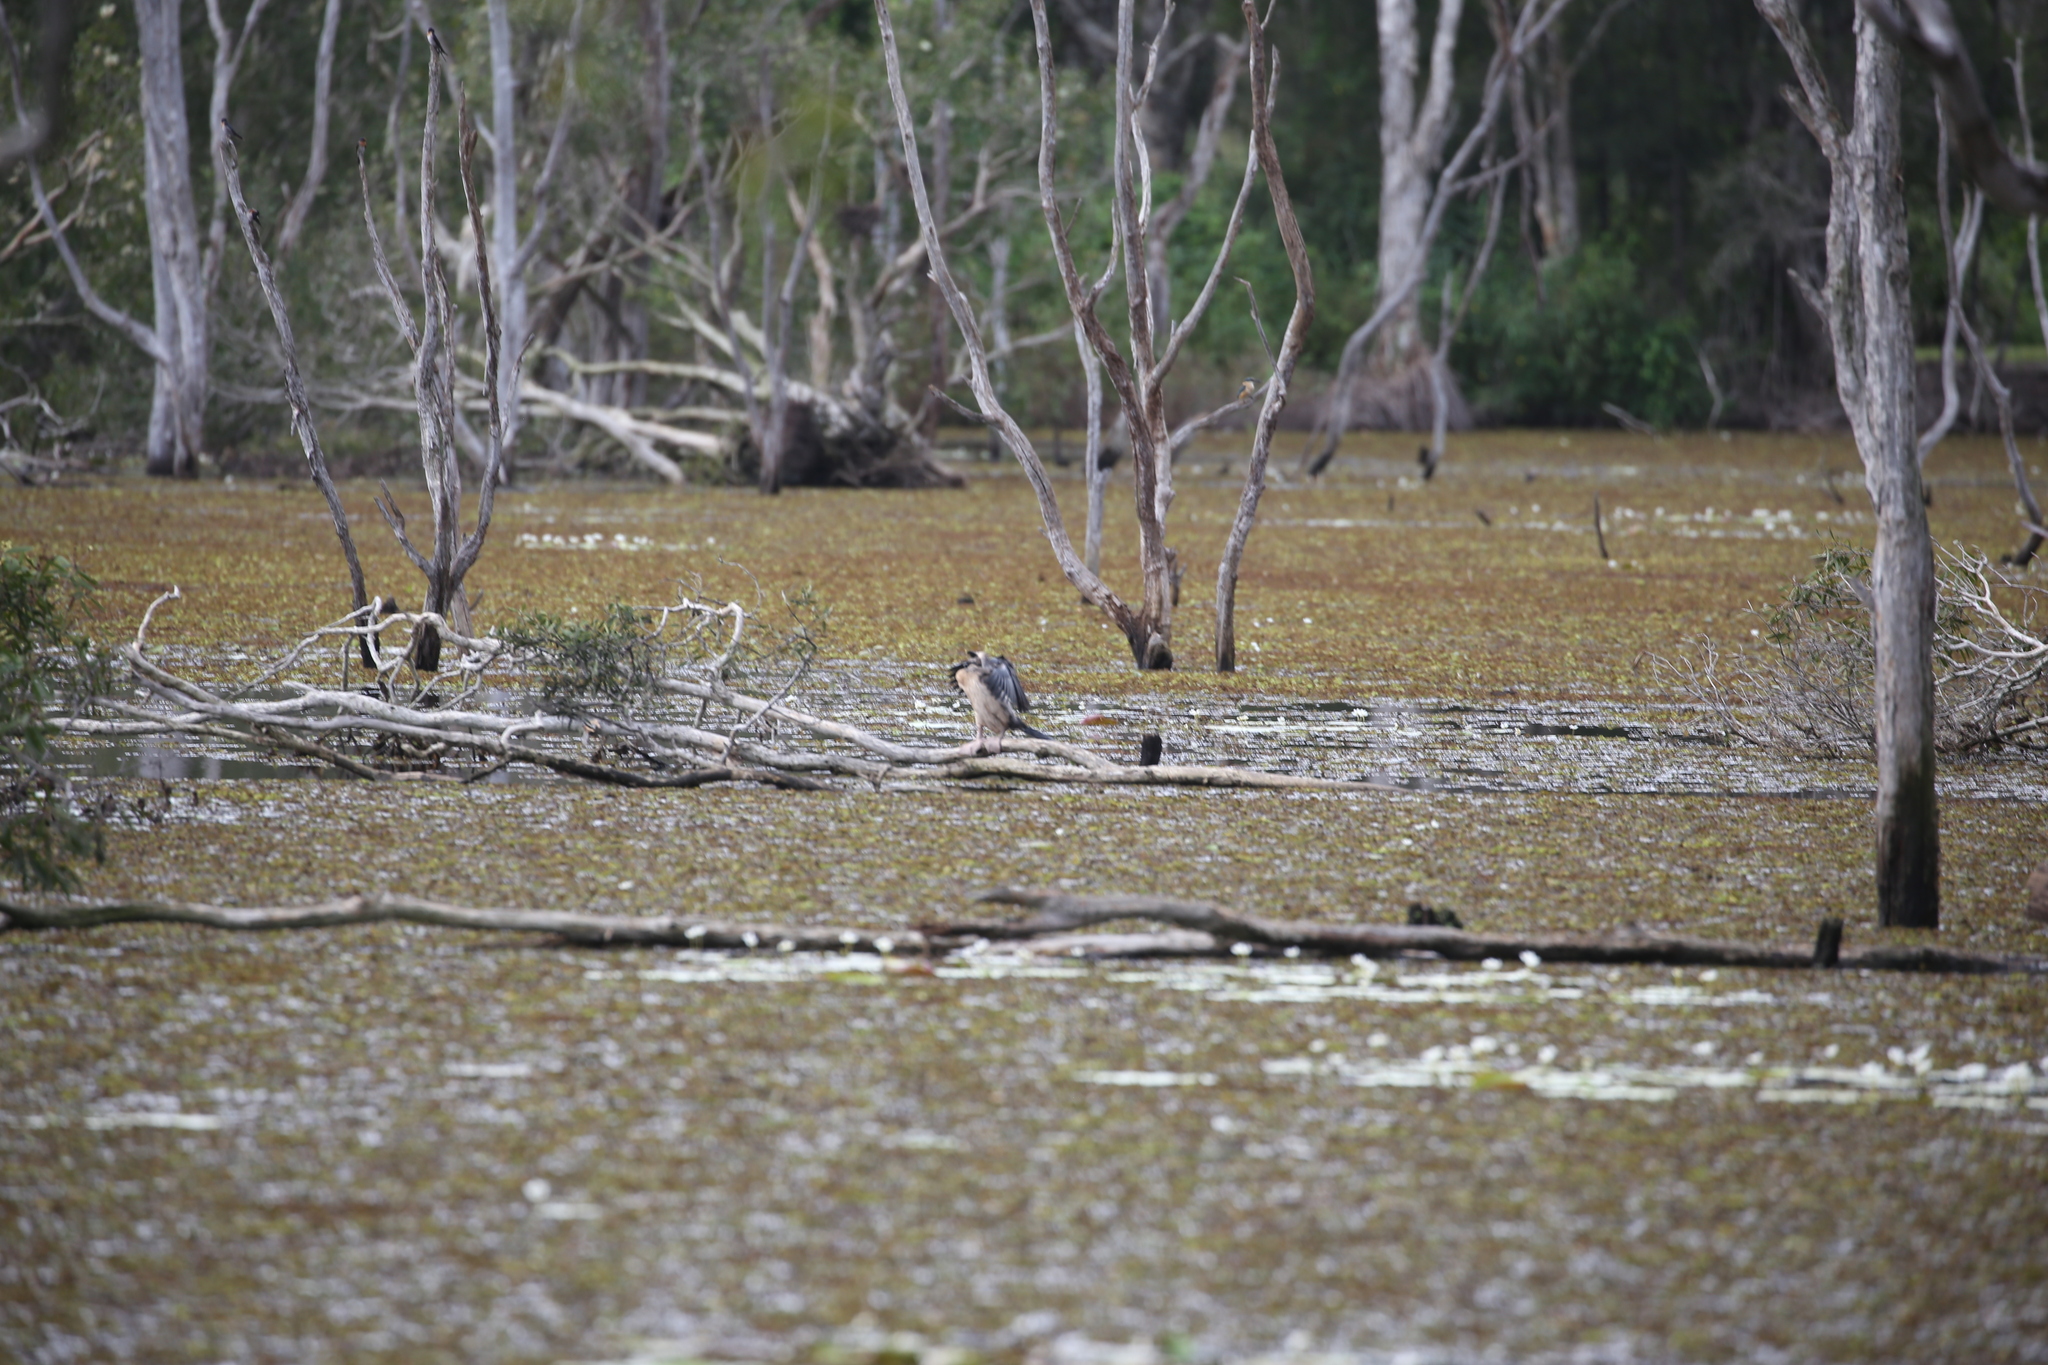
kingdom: Animalia
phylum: Chordata
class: Aves
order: Suliformes
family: Anhingidae
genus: Anhinga
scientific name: Anhinga novaehollandiae
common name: Australasian darter
